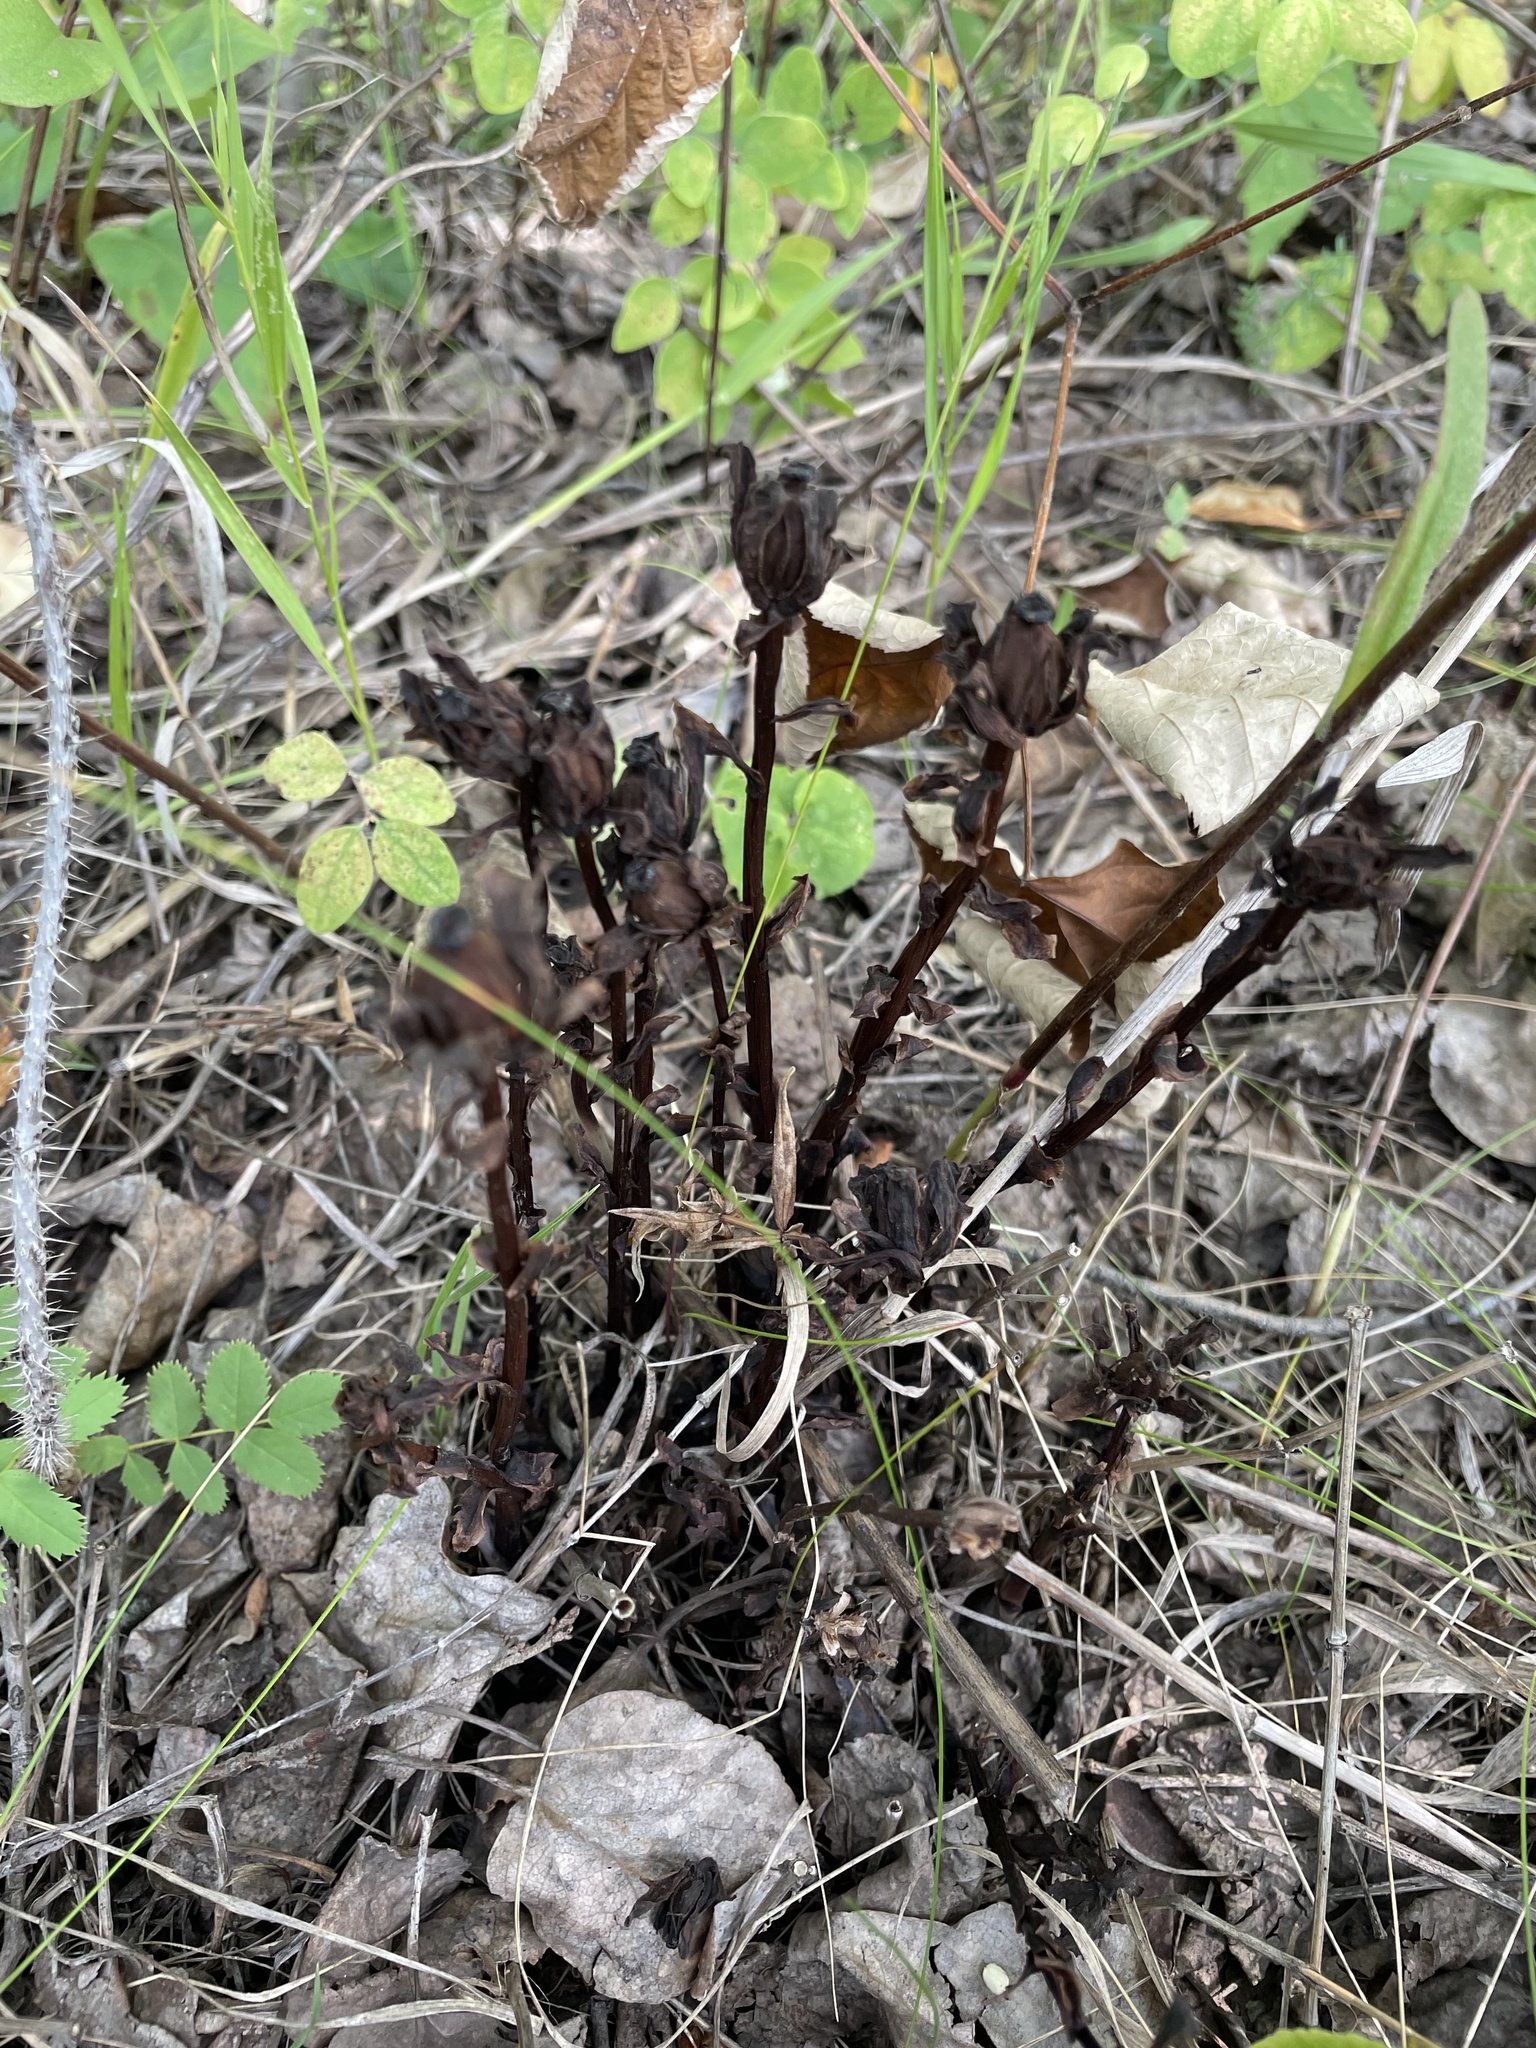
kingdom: Plantae
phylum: Tracheophyta
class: Magnoliopsida
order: Ericales
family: Ericaceae
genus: Monotropa
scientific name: Monotropa uniflora
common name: Convulsion root
